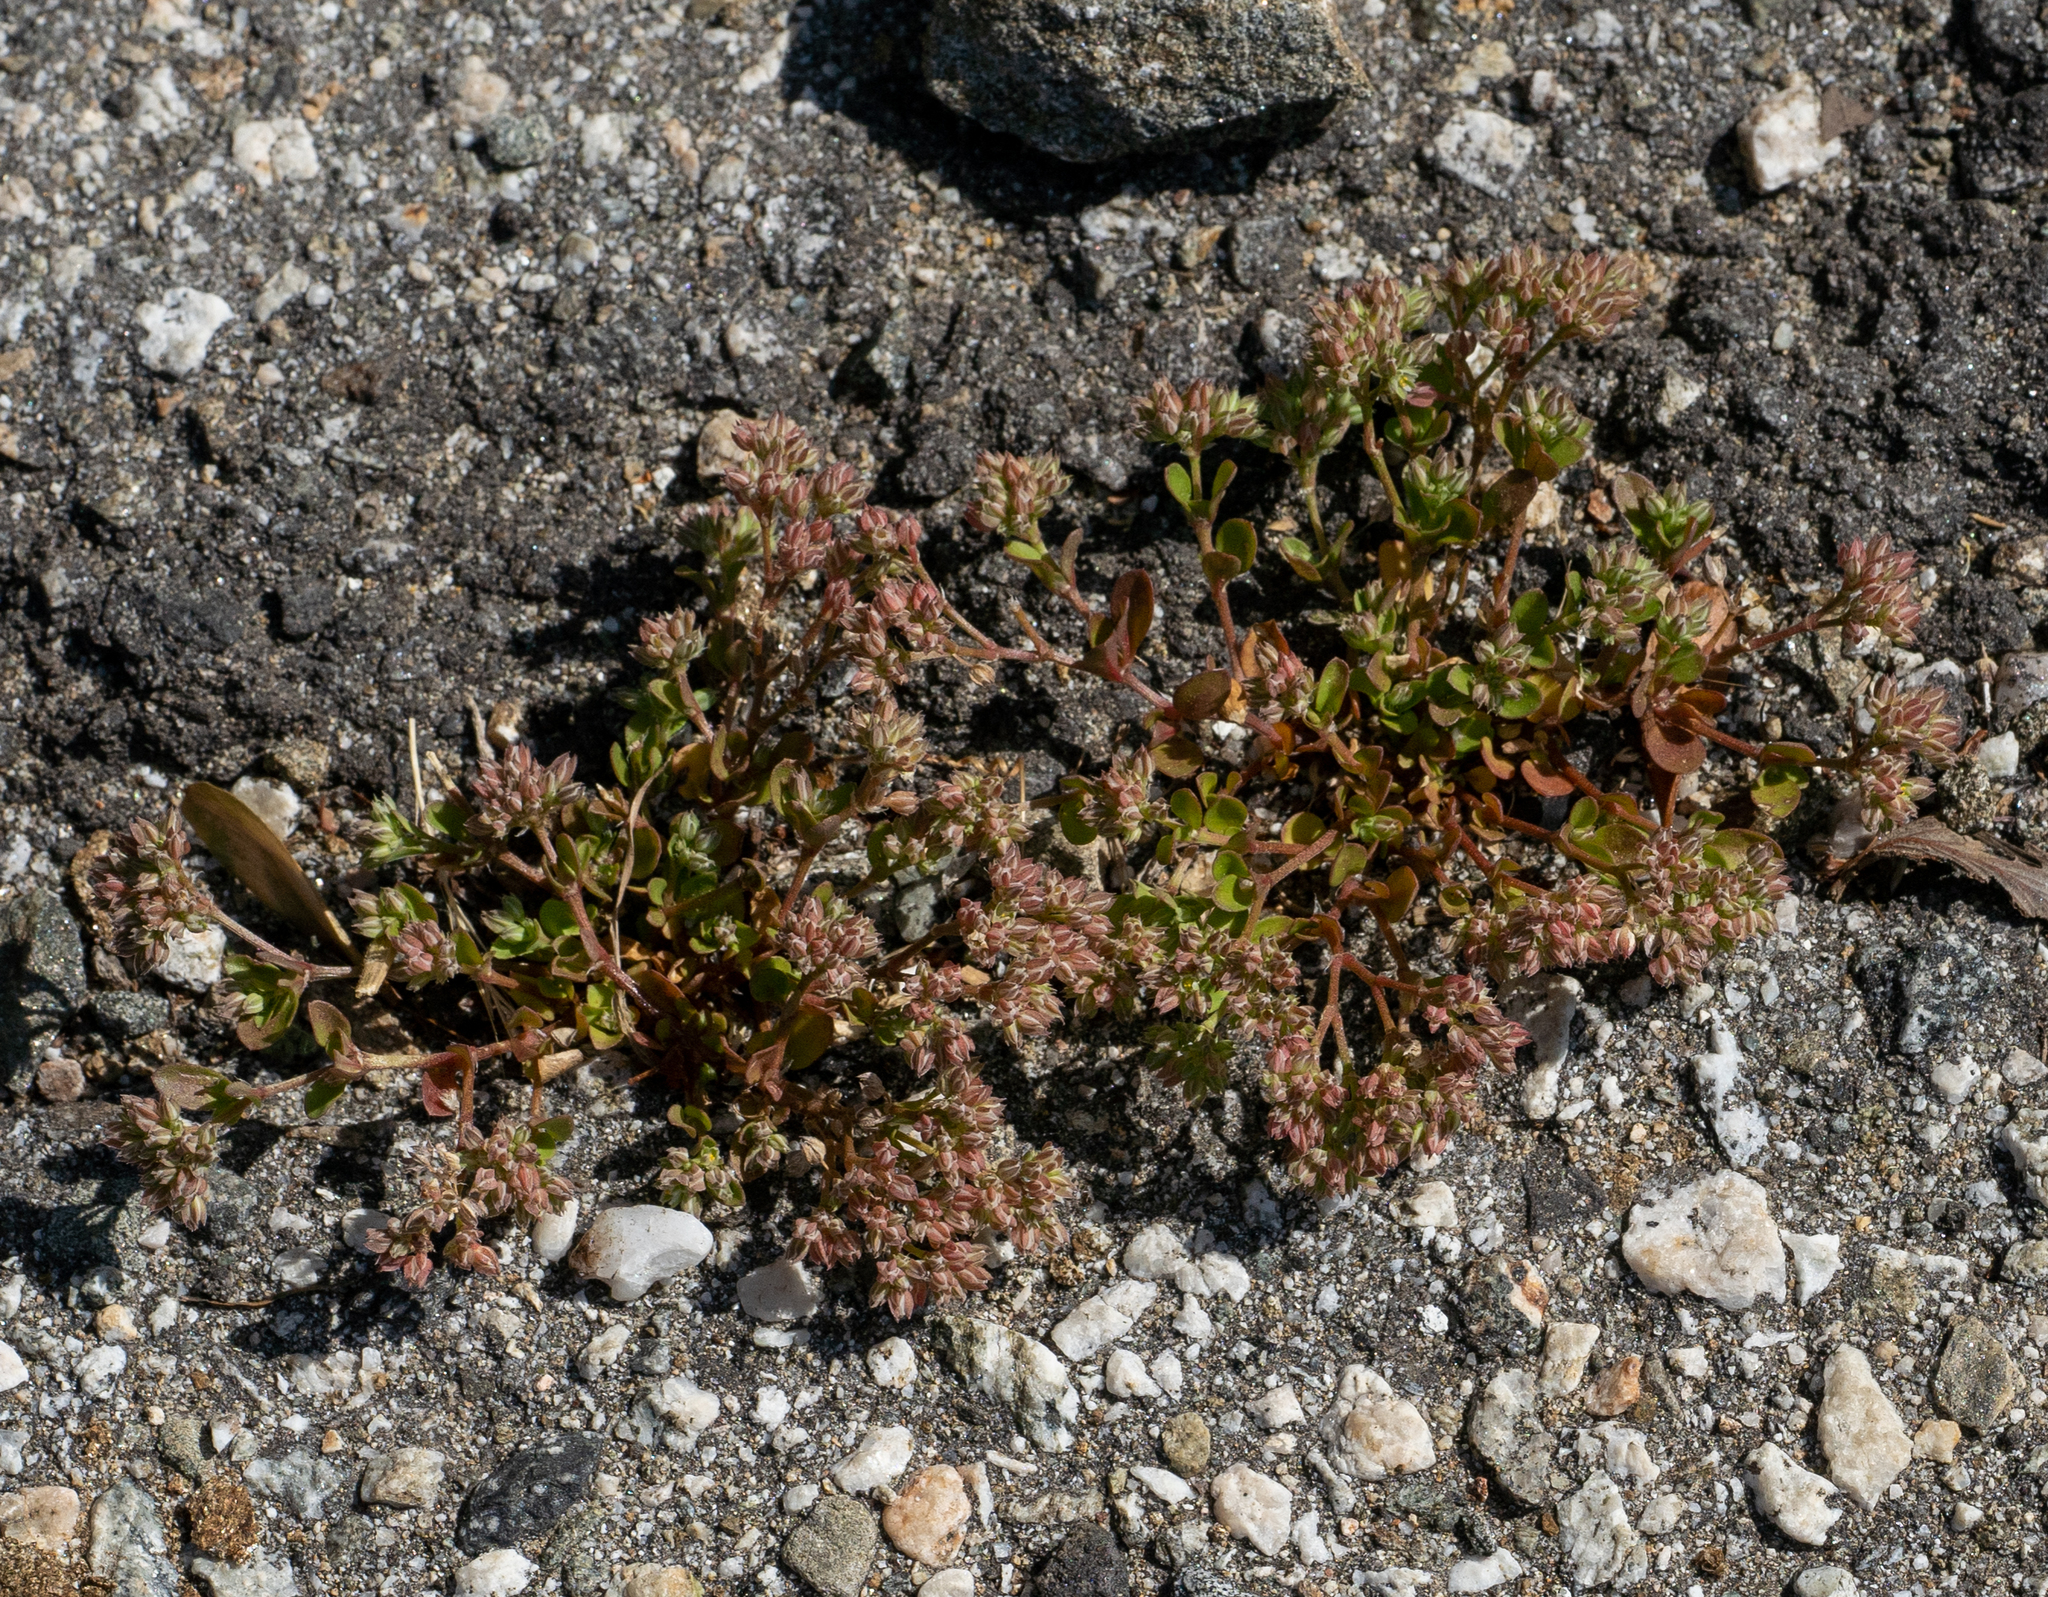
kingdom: Plantae
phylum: Tracheophyta
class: Magnoliopsida
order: Caryophyllales
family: Caryophyllaceae
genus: Polycarpon
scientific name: Polycarpon tetraphyllum
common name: Four-leaved all-seed
